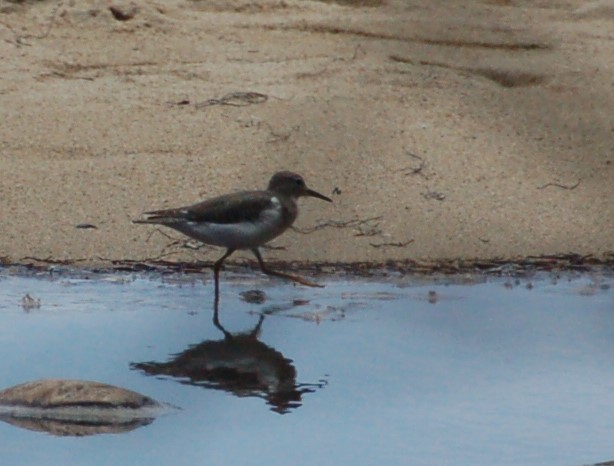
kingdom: Animalia
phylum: Chordata
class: Aves
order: Charadriiformes
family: Scolopacidae
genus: Actitis
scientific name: Actitis macularius
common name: Spotted sandpiper
